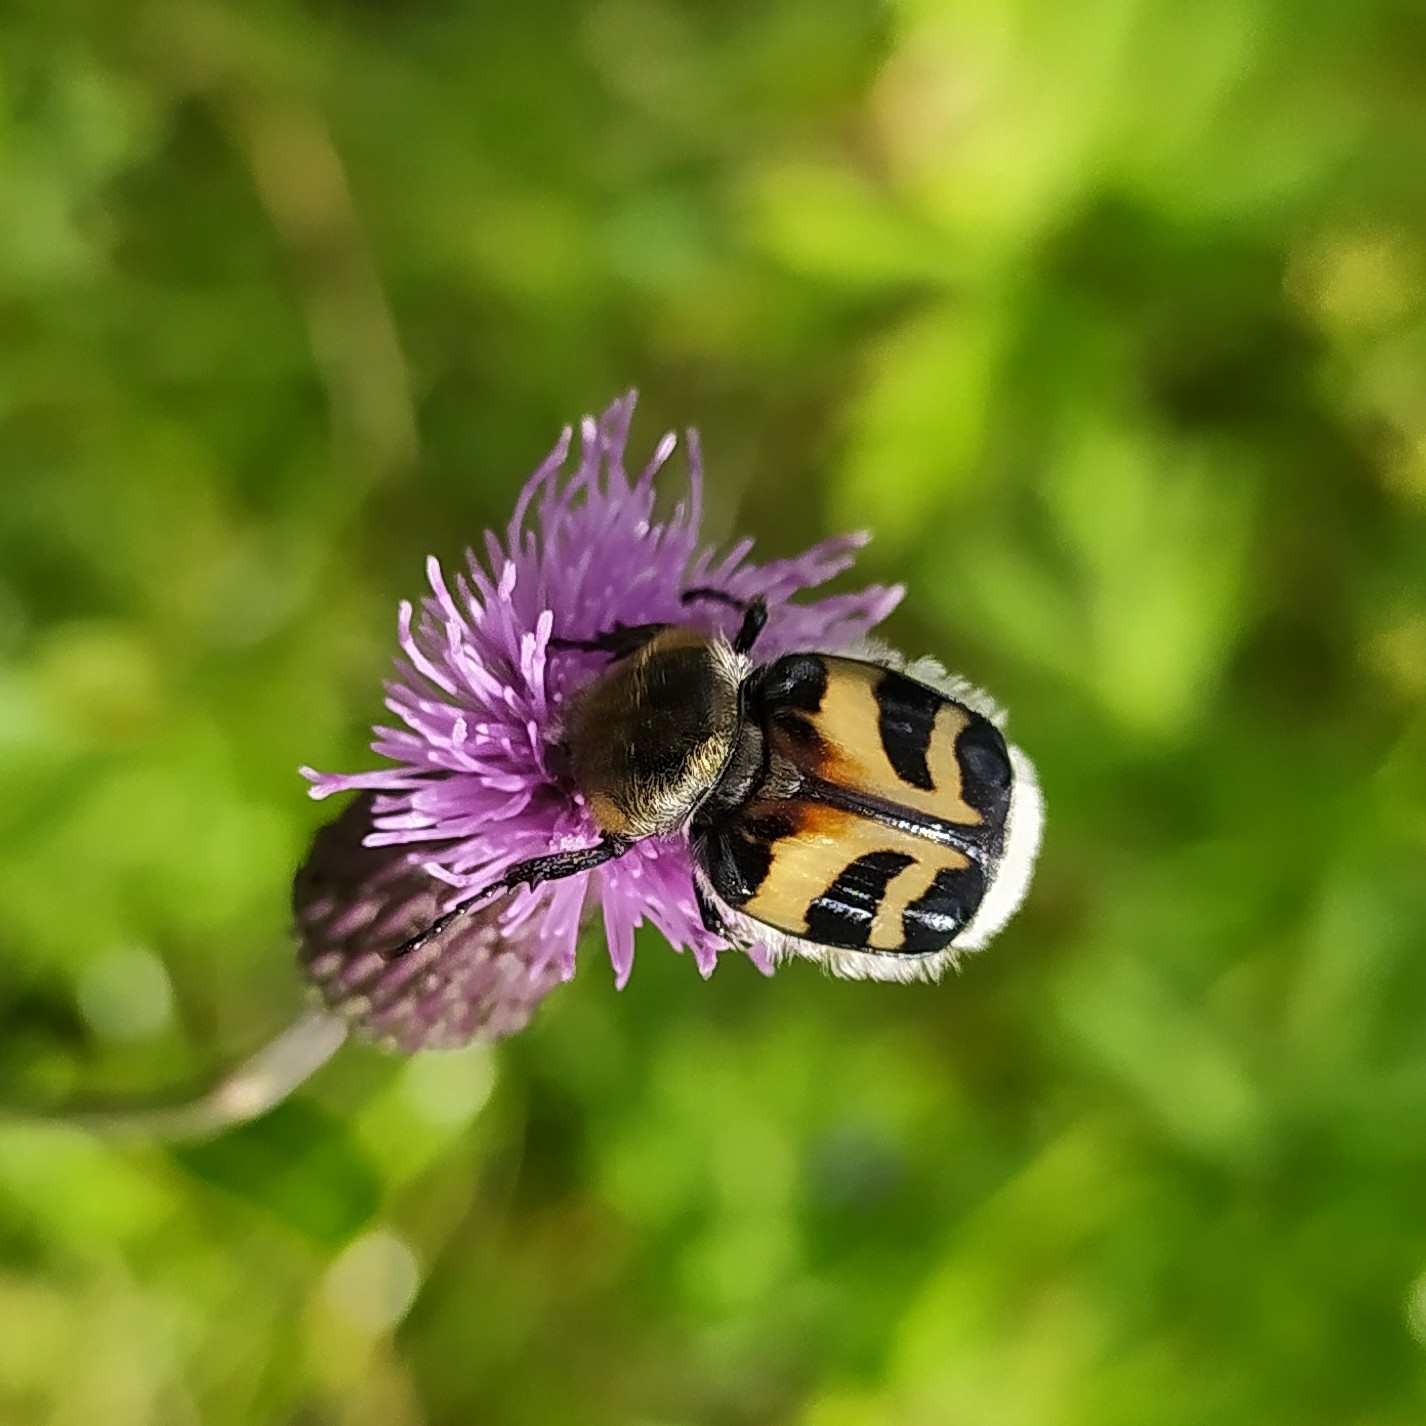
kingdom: Animalia
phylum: Arthropoda
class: Insecta
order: Coleoptera
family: Scarabaeidae
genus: Trichius
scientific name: Trichius fasciatus
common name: Bee beetle
